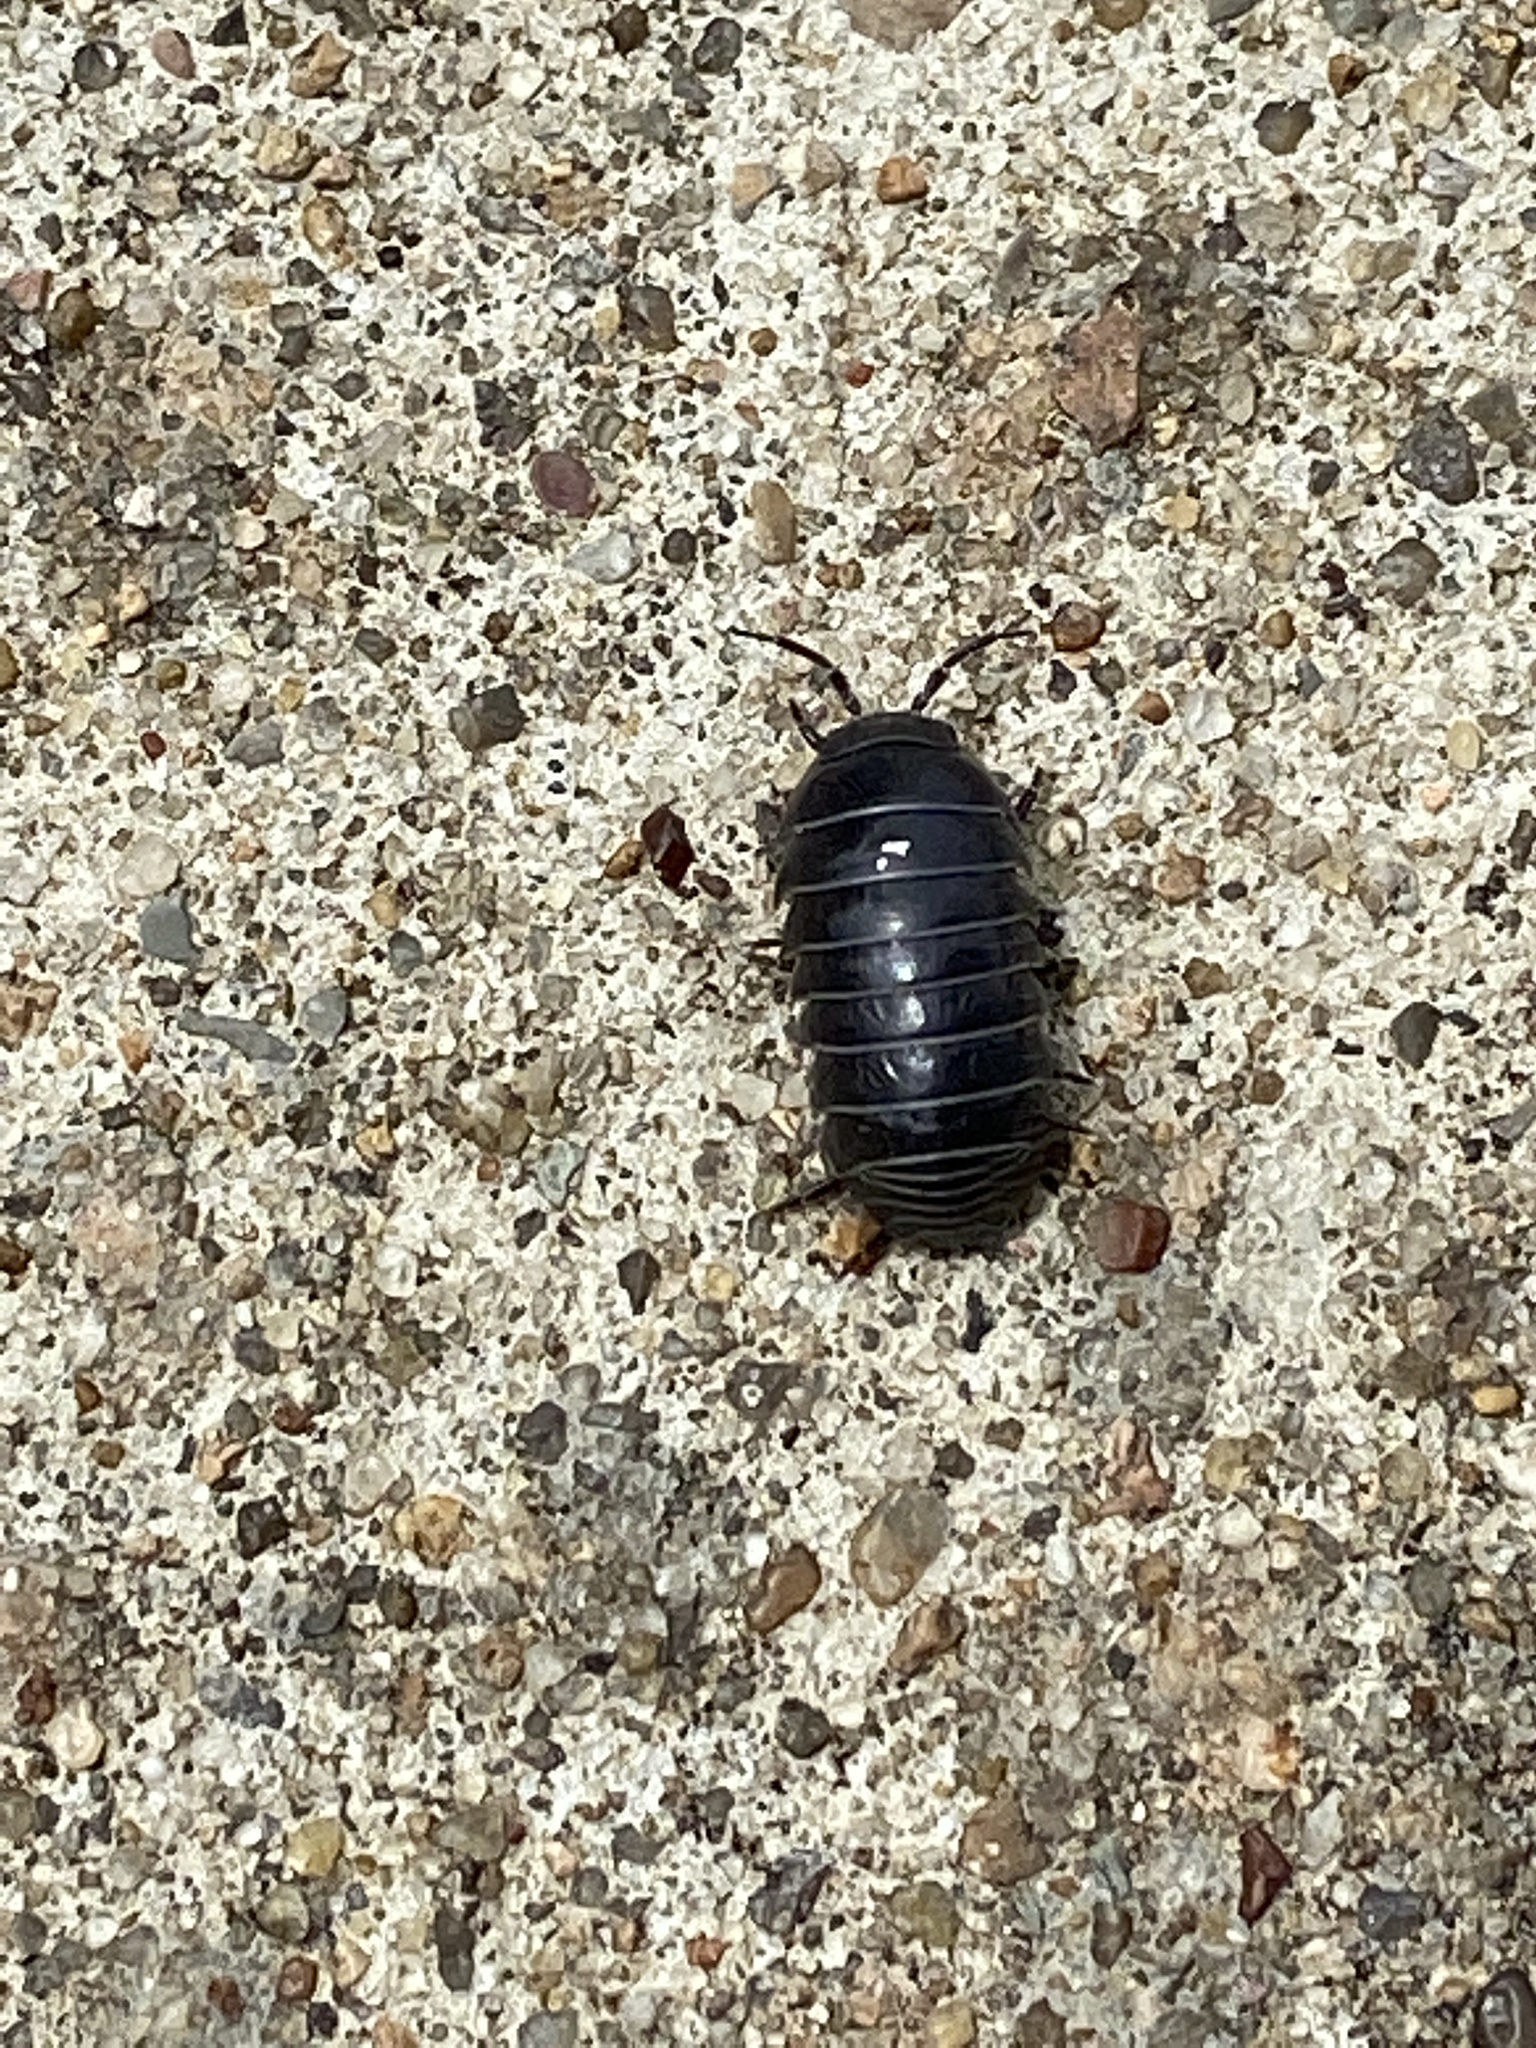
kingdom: Animalia
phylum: Arthropoda
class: Malacostraca
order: Isopoda
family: Armadillidiidae
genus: Armadillidium
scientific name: Armadillidium vulgare
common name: Common pill woodlouse
